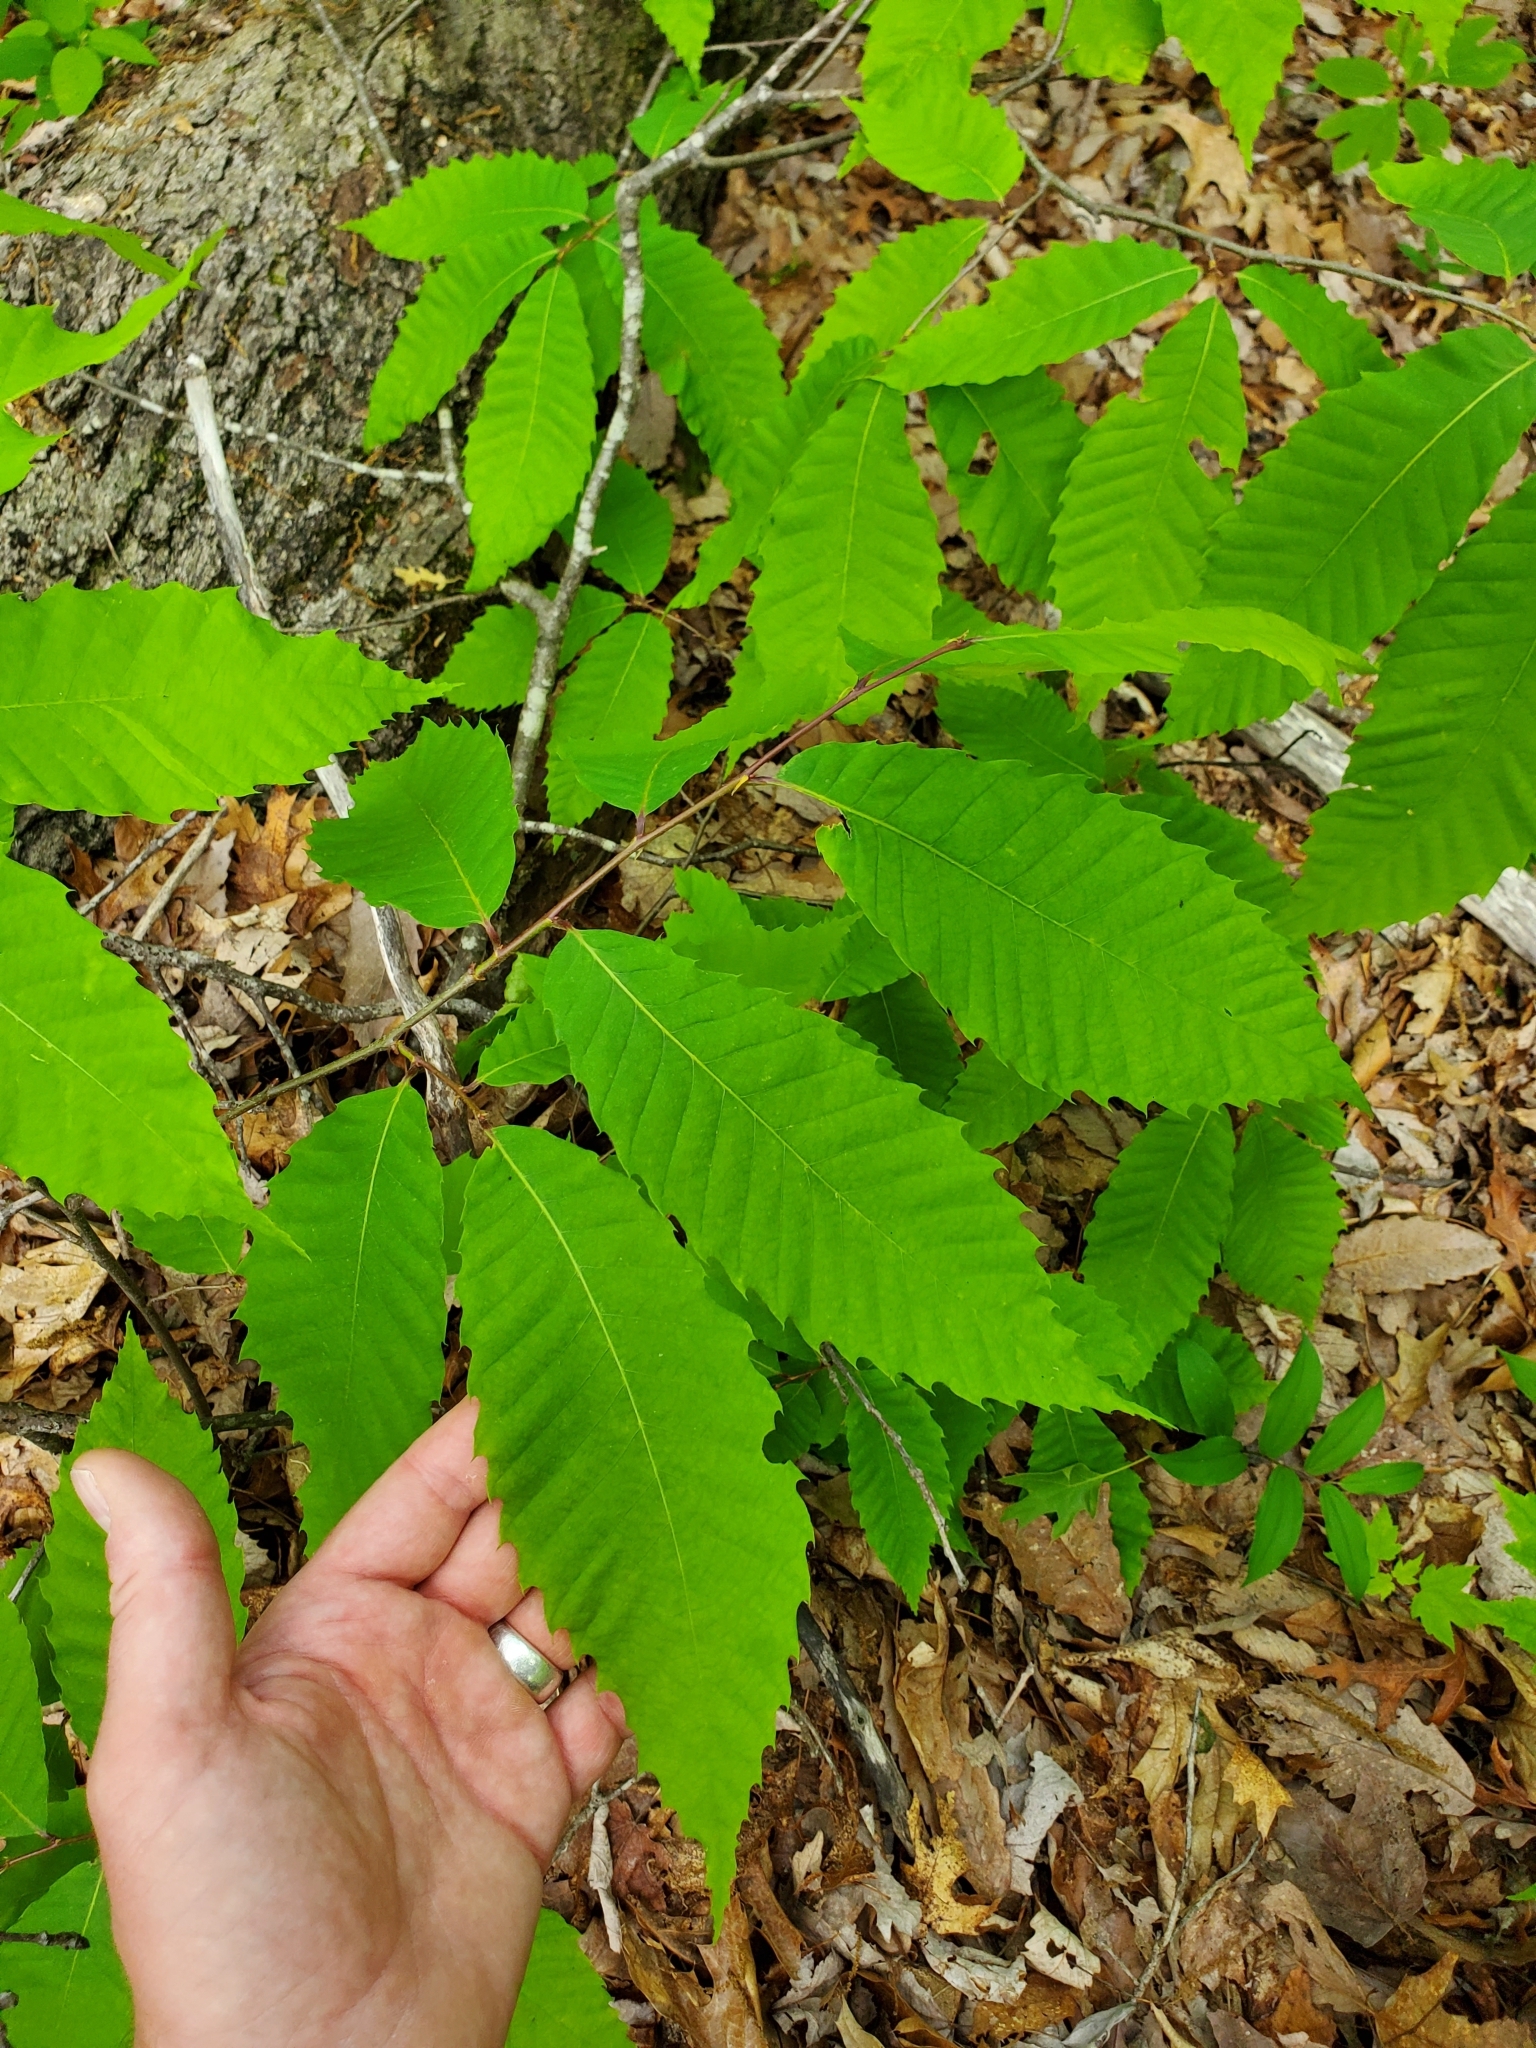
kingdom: Plantae
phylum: Tracheophyta
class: Magnoliopsida
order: Fagales
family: Fagaceae
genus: Castanea
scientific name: Castanea dentata
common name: American chestnut
